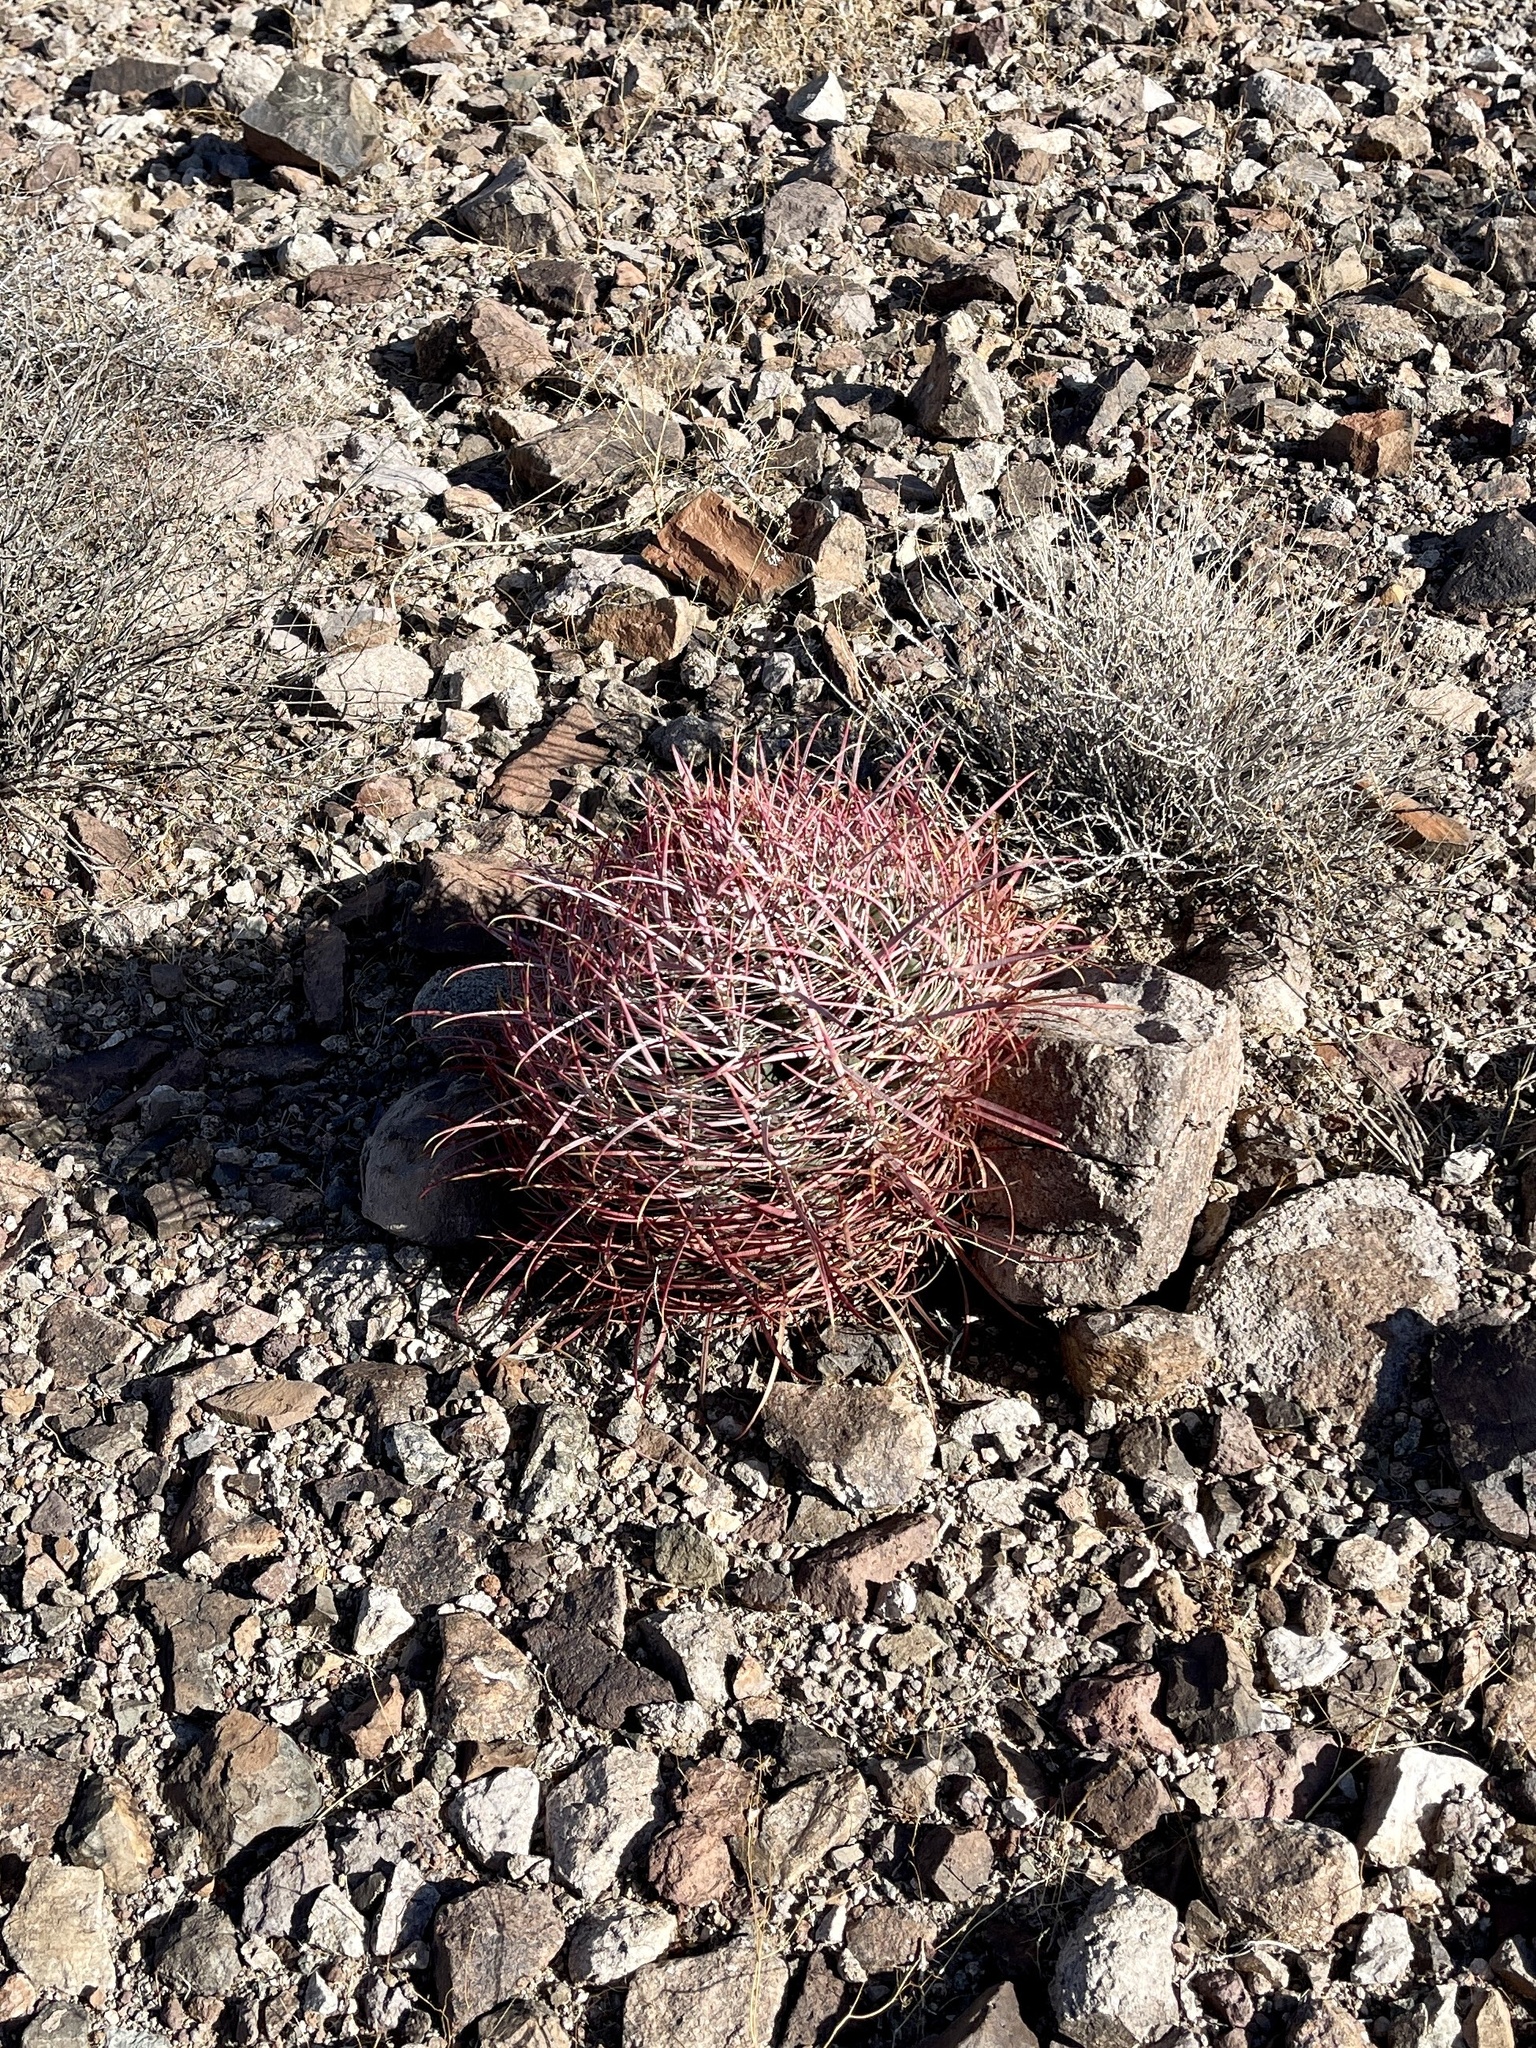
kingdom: Plantae
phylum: Tracheophyta
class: Magnoliopsida
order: Caryophyllales
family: Cactaceae
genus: Ferocactus
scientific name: Ferocactus cylindraceus
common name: California barrel cactus
